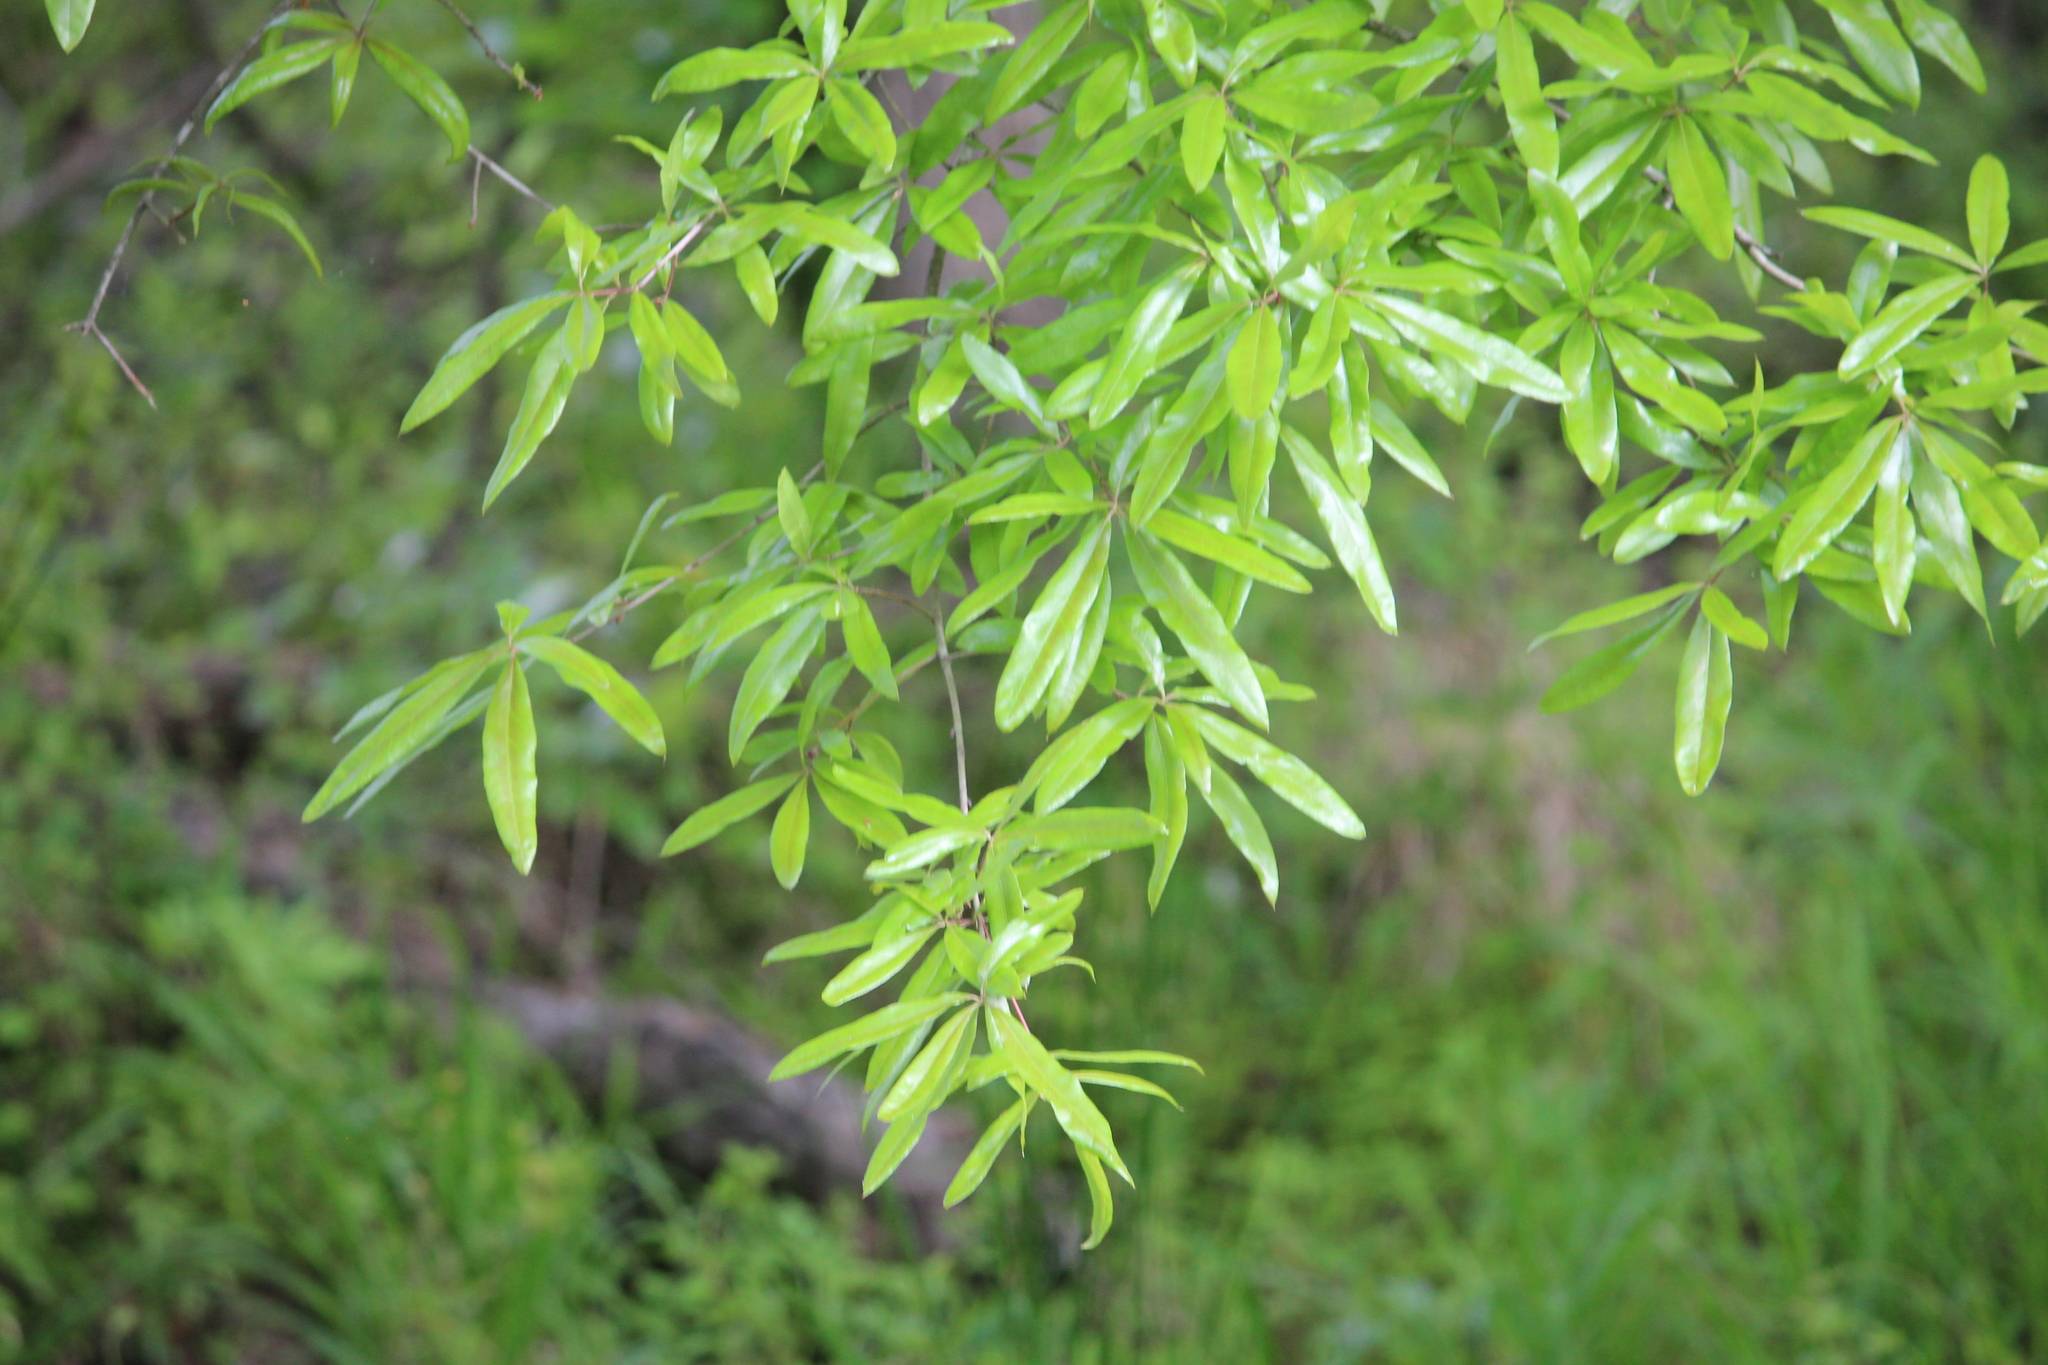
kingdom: Plantae
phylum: Tracheophyta
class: Magnoliopsida
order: Fagales
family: Fagaceae
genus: Quercus
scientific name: Quercus phellos
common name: Willow oak
